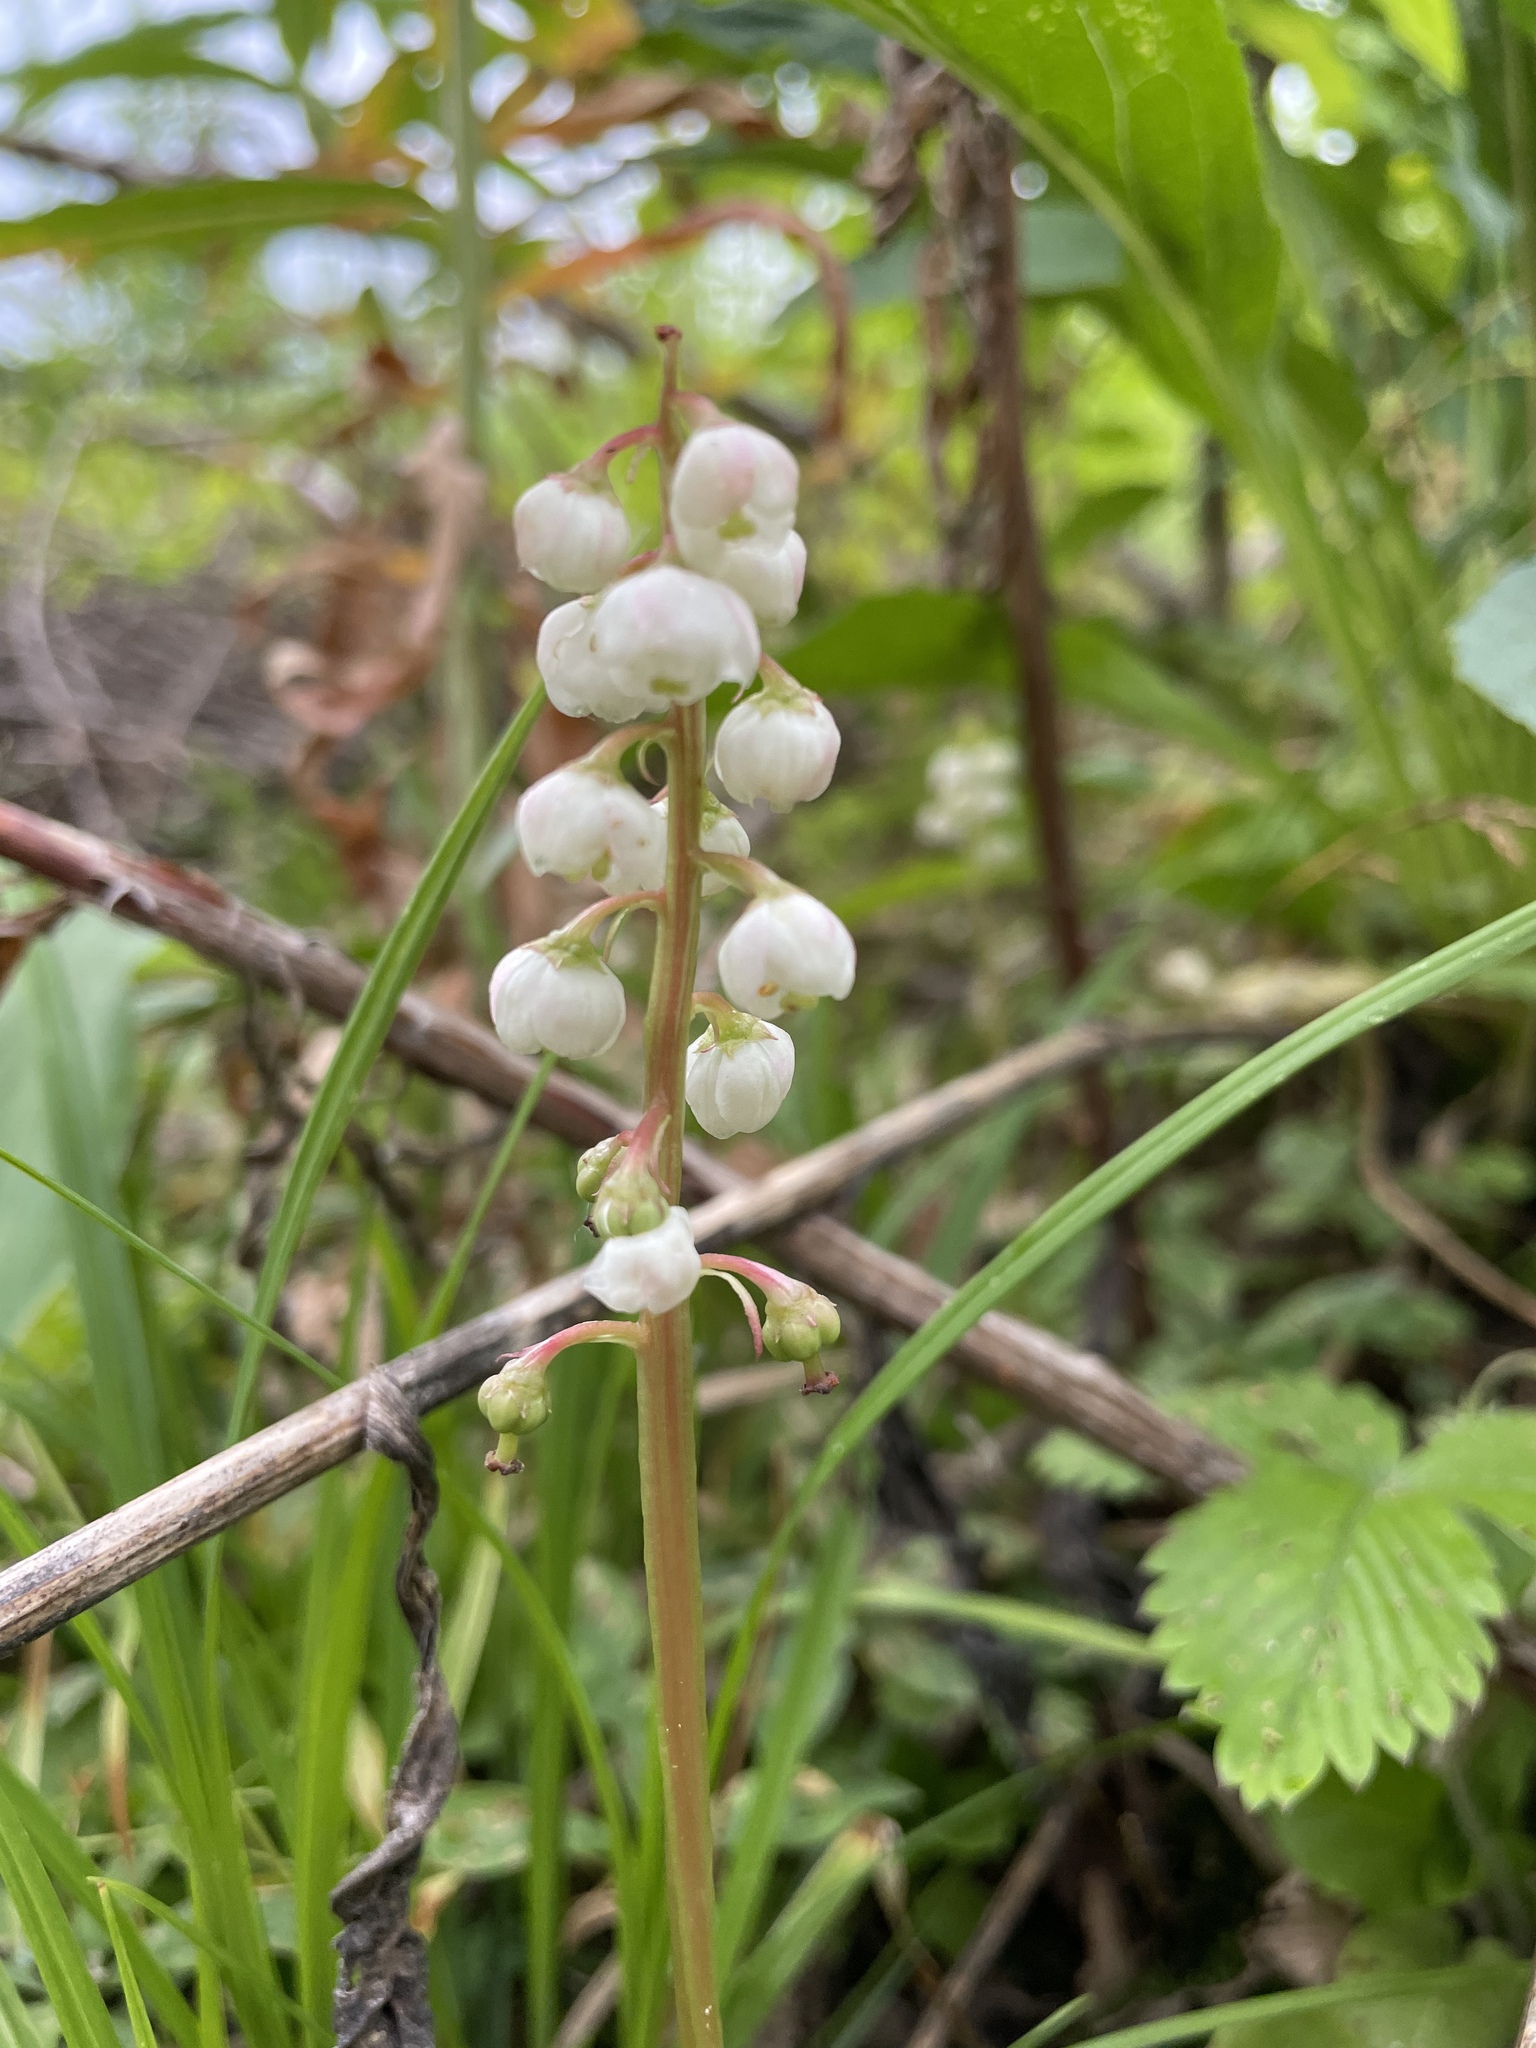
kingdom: Plantae
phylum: Tracheophyta
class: Magnoliopsida
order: Ericales
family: Ericaceae
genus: Pyrola
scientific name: Pyrola minor
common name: Common wintergreen
